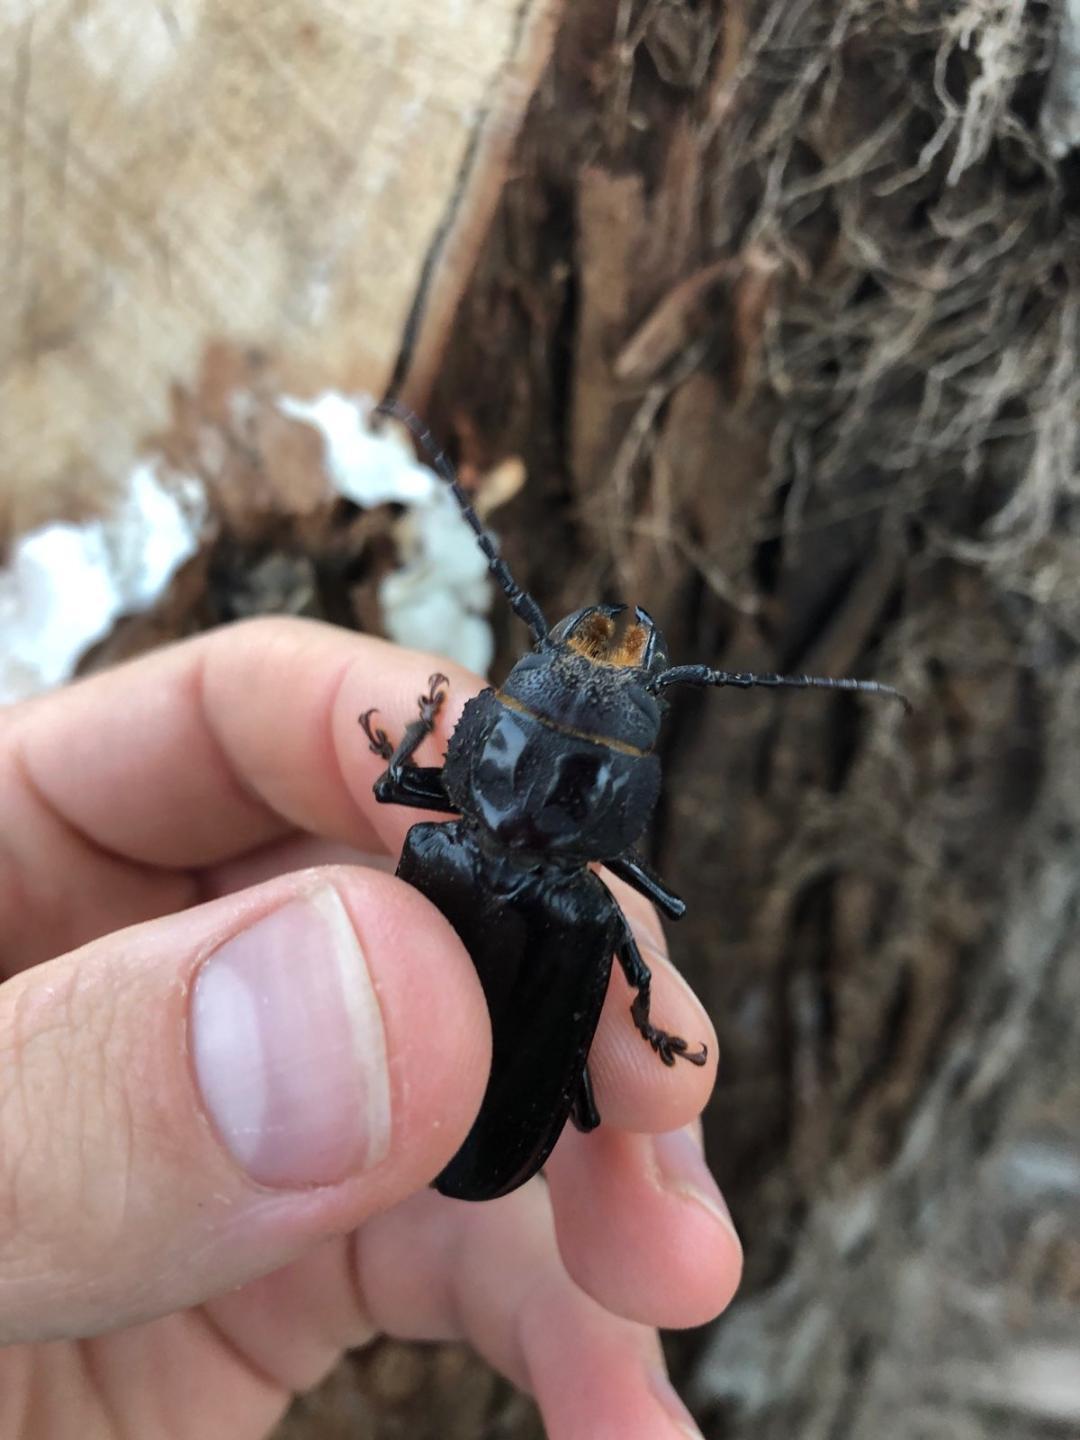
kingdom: Animalia
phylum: Arthropoda
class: Insecta
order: Coleoptera
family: Cerambycidae
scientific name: Cerambycidae
